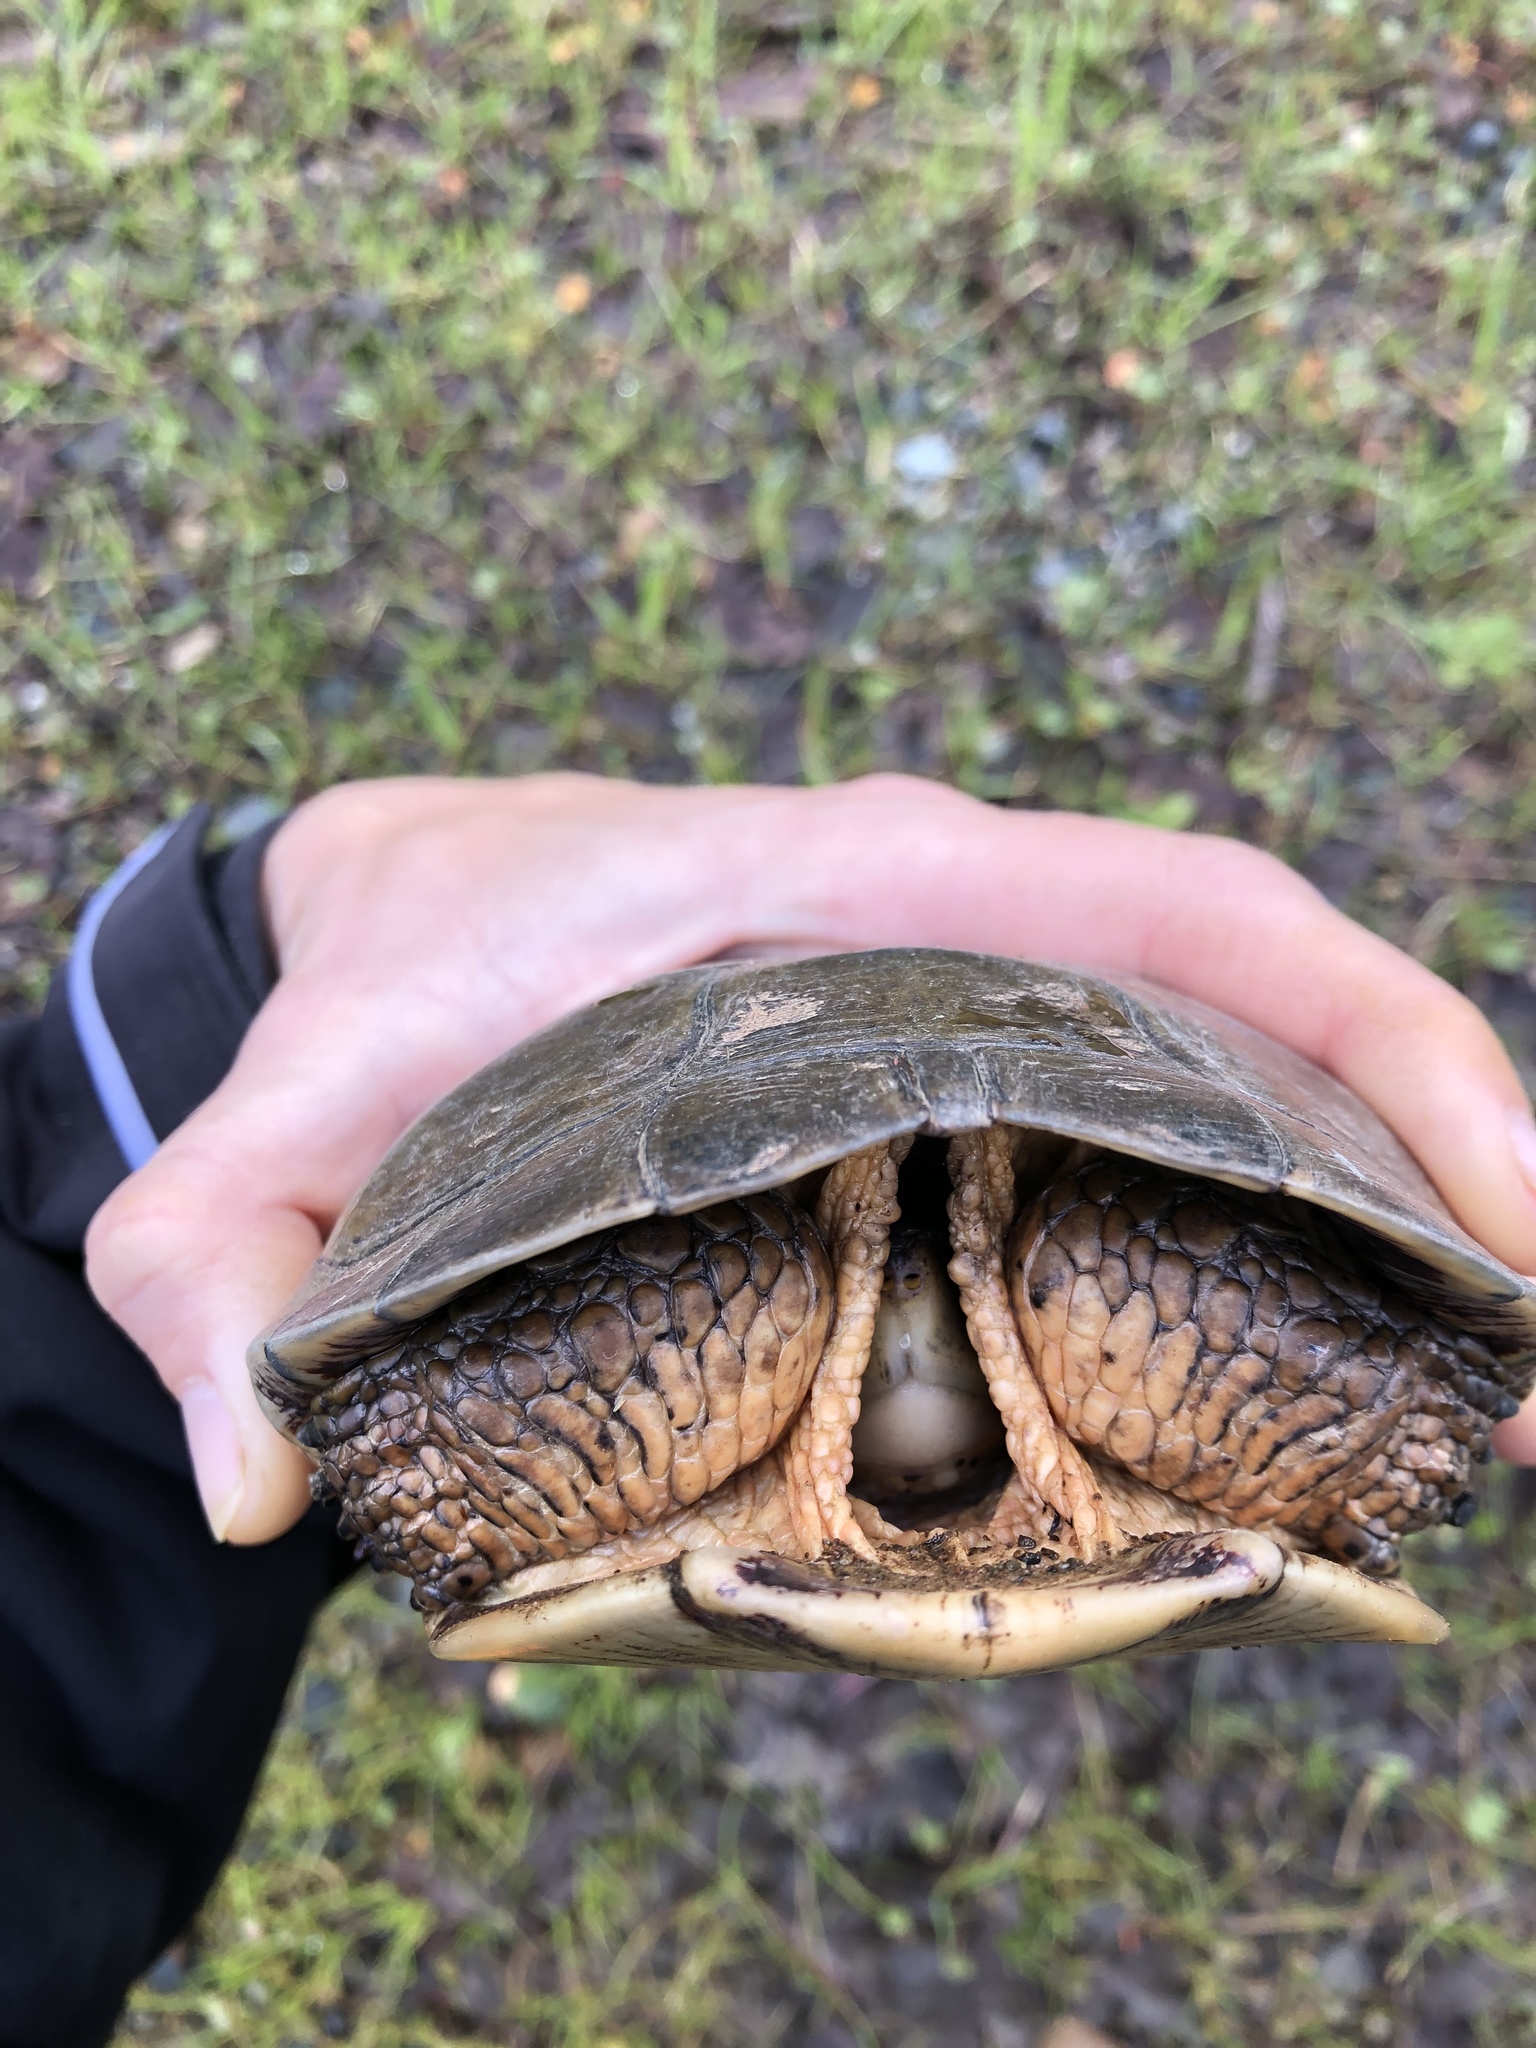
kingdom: Animalia
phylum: Chordata
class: Testudines
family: Emydidae
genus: Actinemys
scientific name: Actinemys marmorata
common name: Western pond turtle
